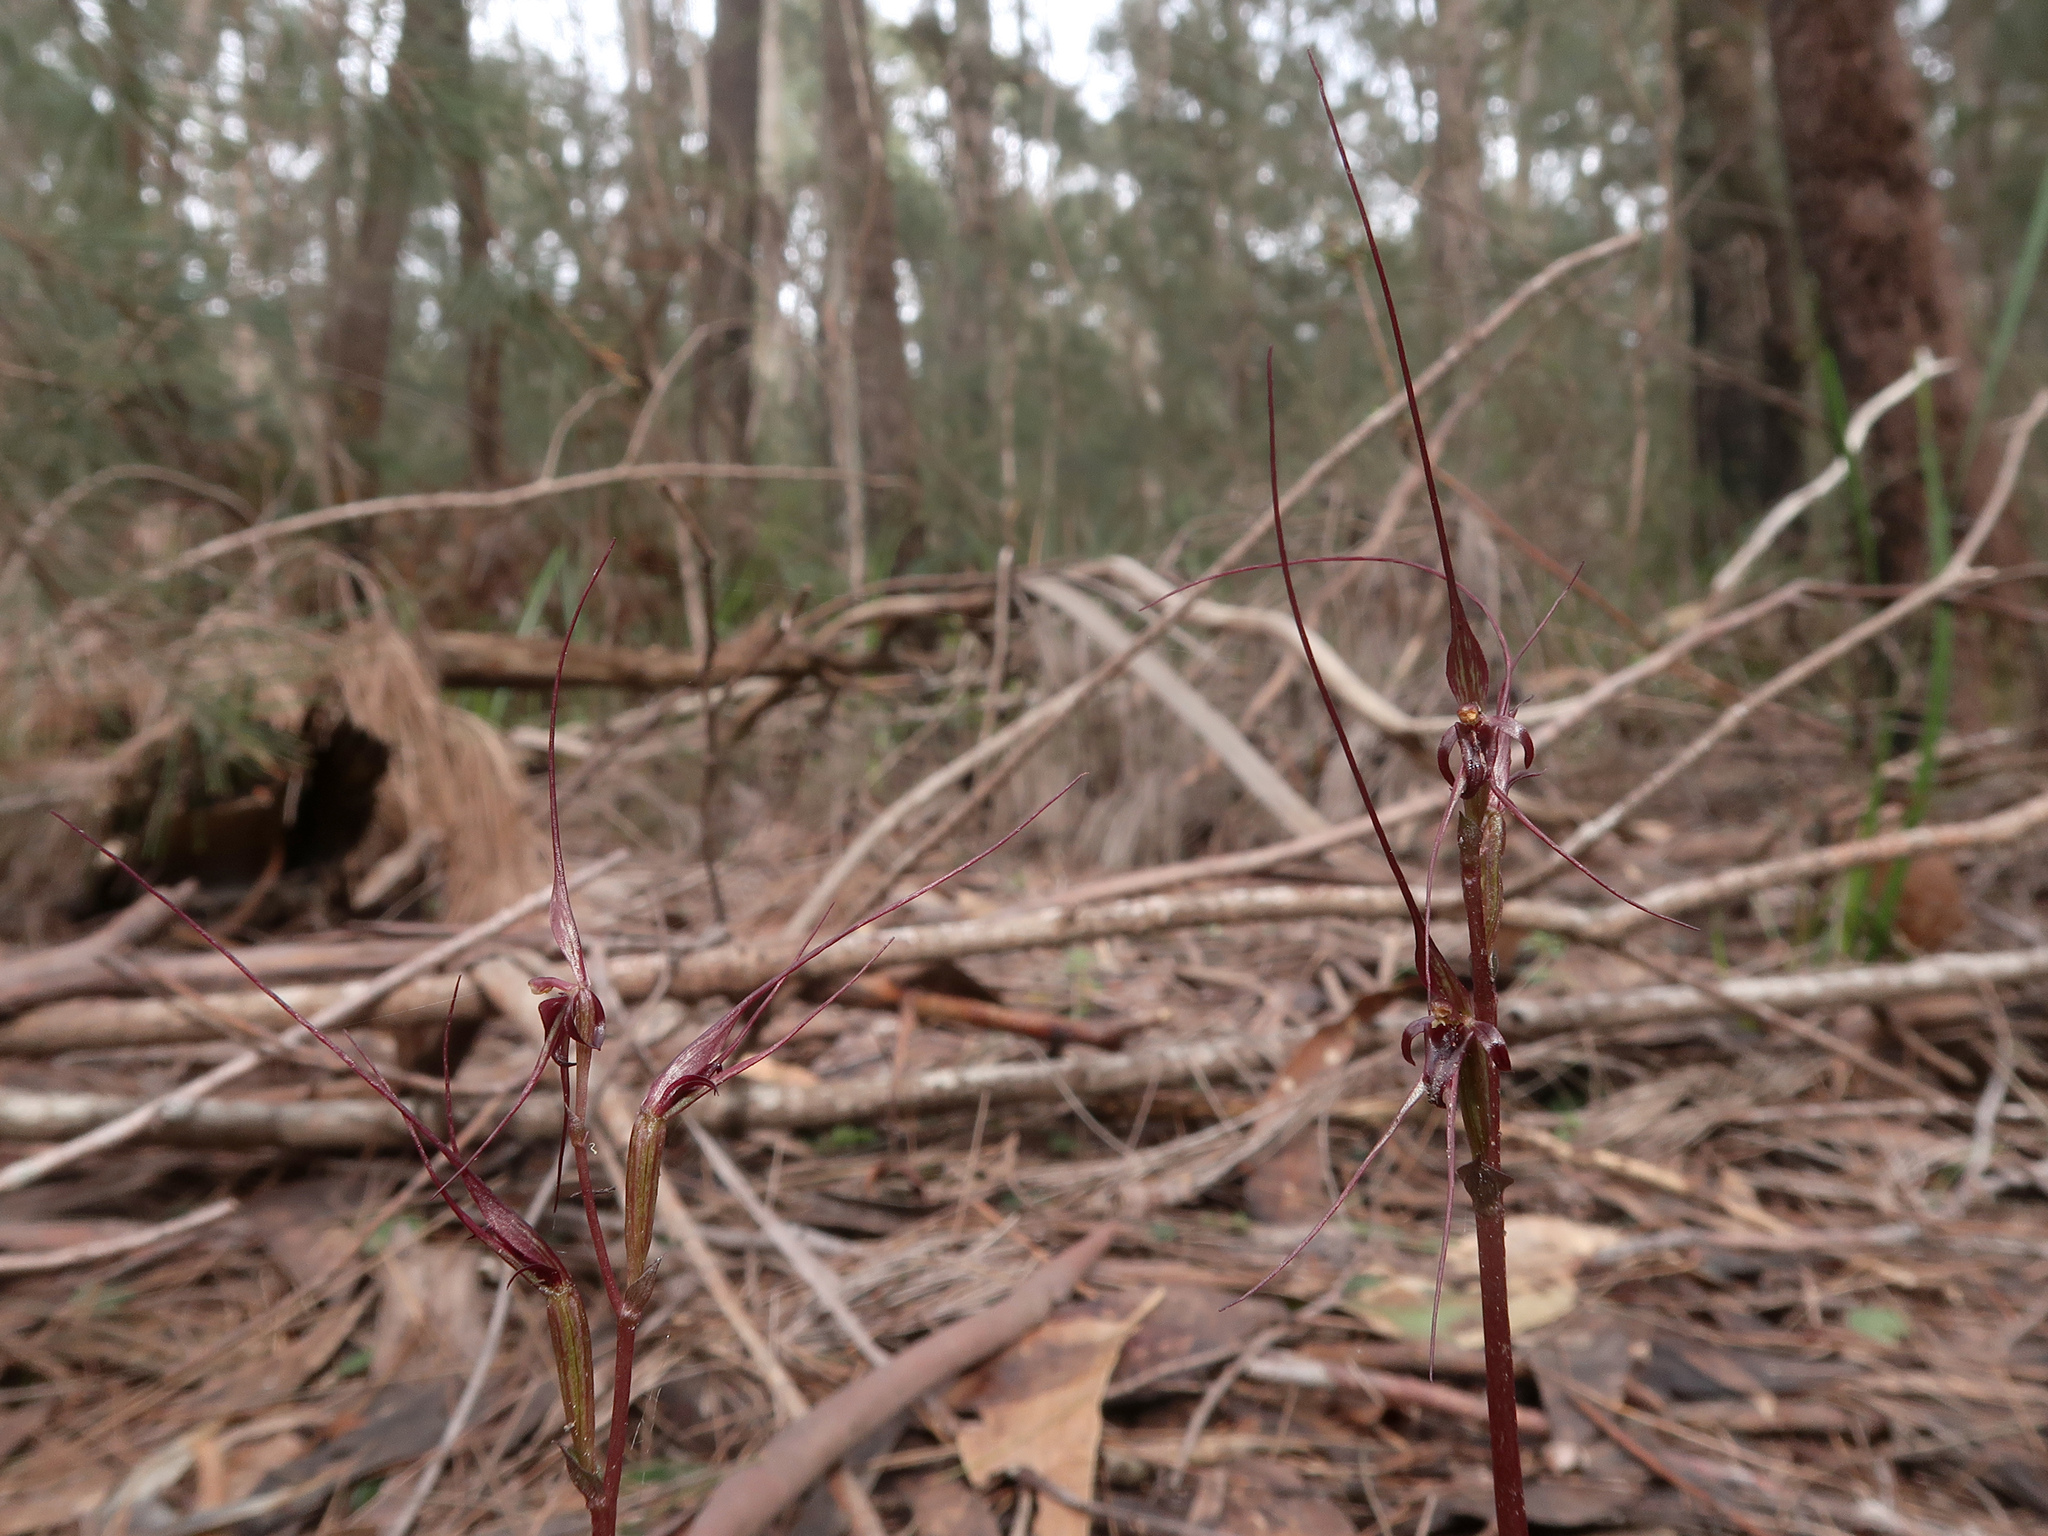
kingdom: Plantae
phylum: Tracheophyta
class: Liliopsida
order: Asparagales
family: Orchidaceae
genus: Acianthus
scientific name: Acianthus caudatus
